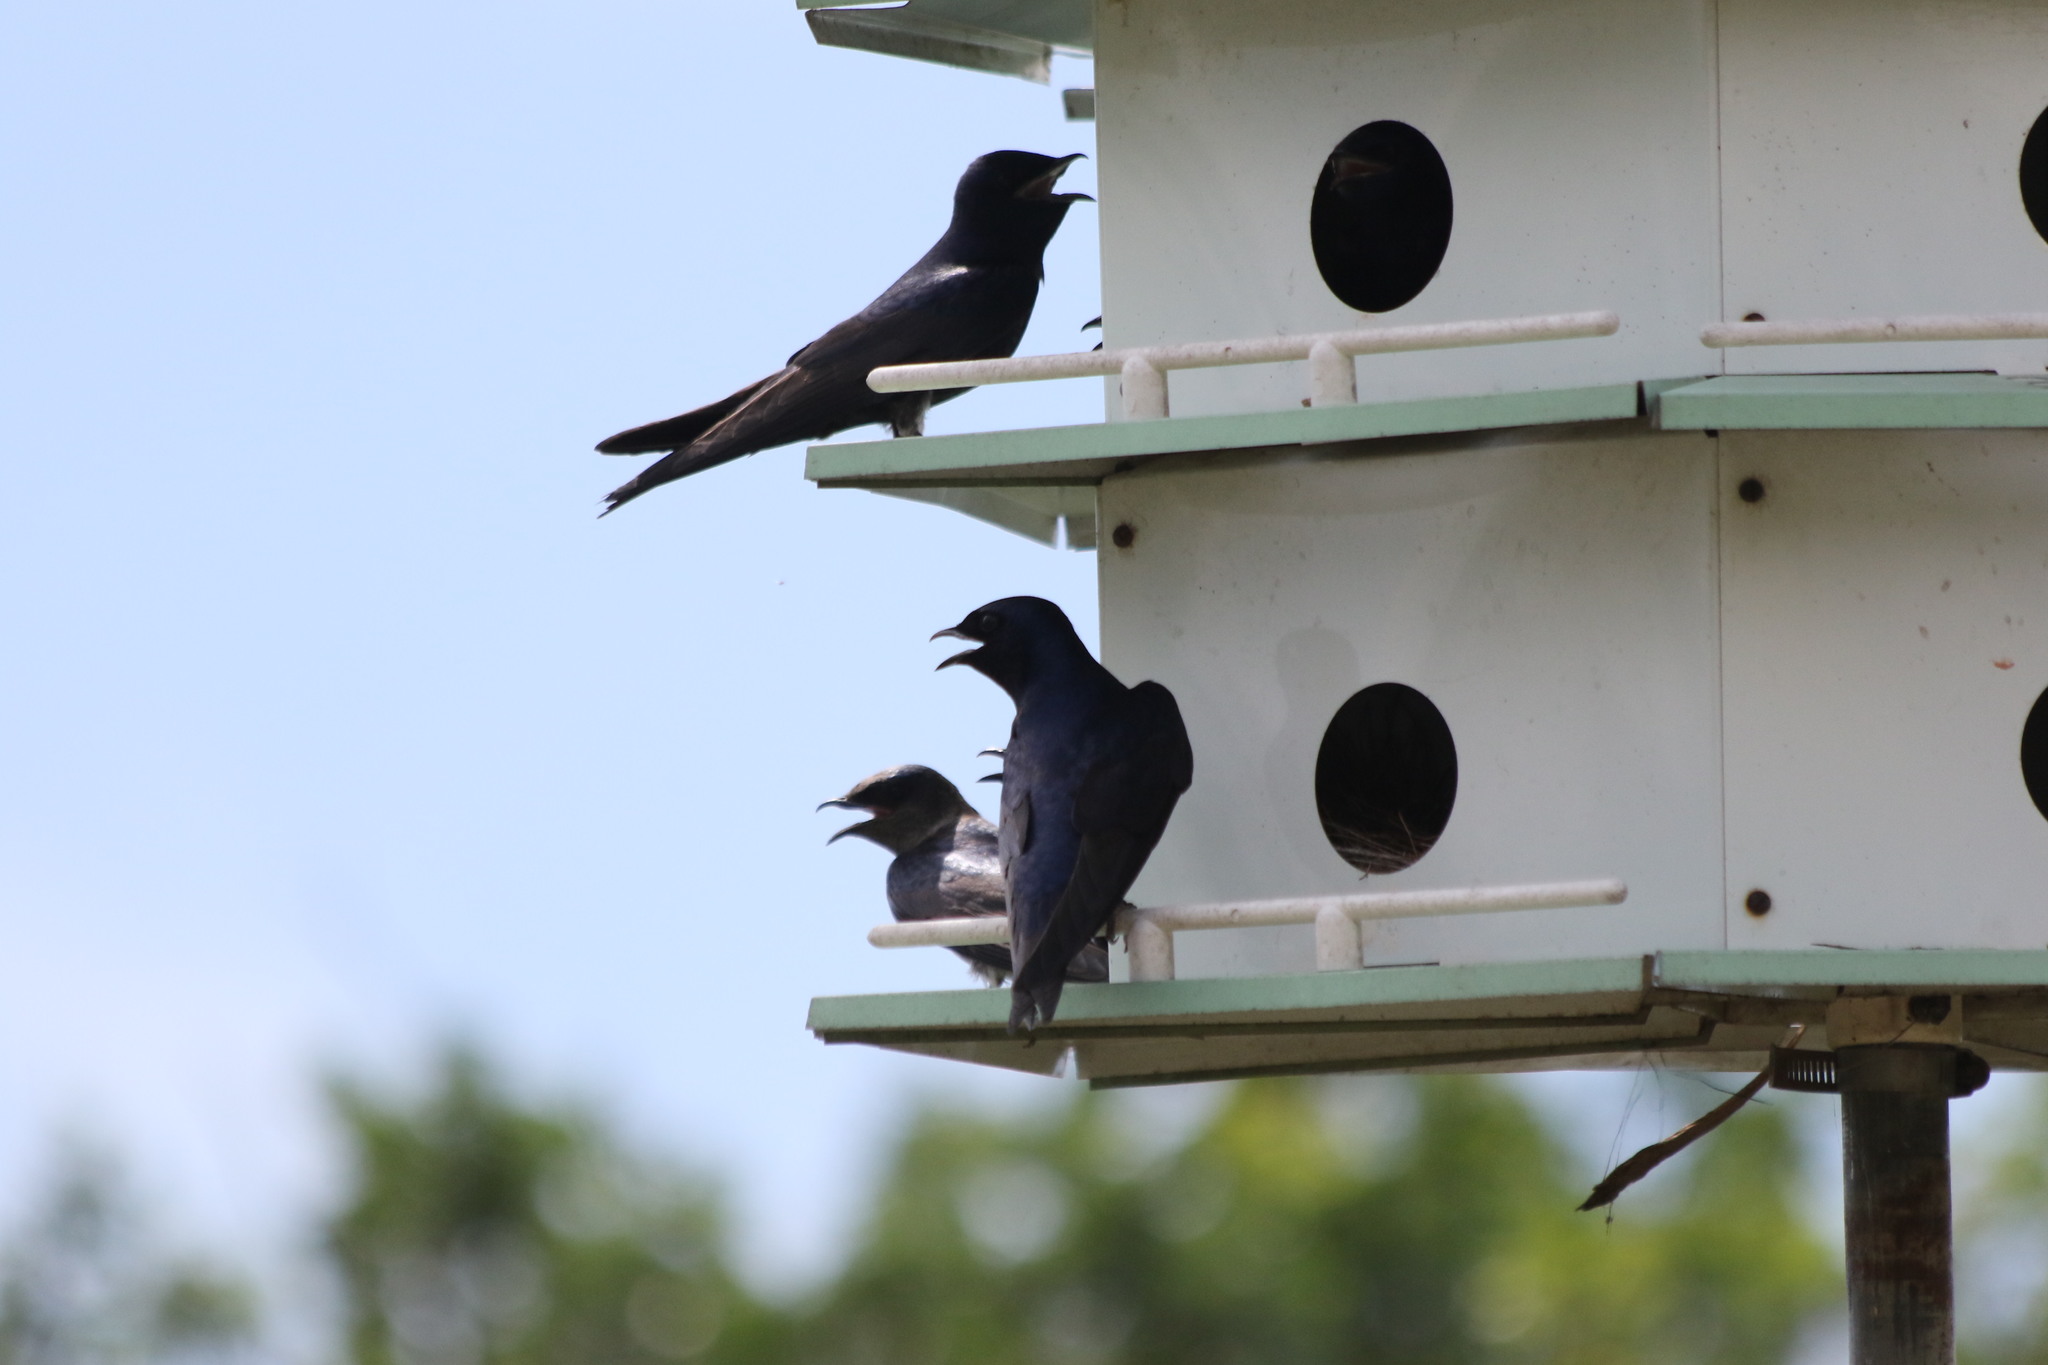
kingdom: Animalia
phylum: Chordata
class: Aves
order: Passeriformes
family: Hirundinidae
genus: Progne
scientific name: Progne subis
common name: Purple martin
